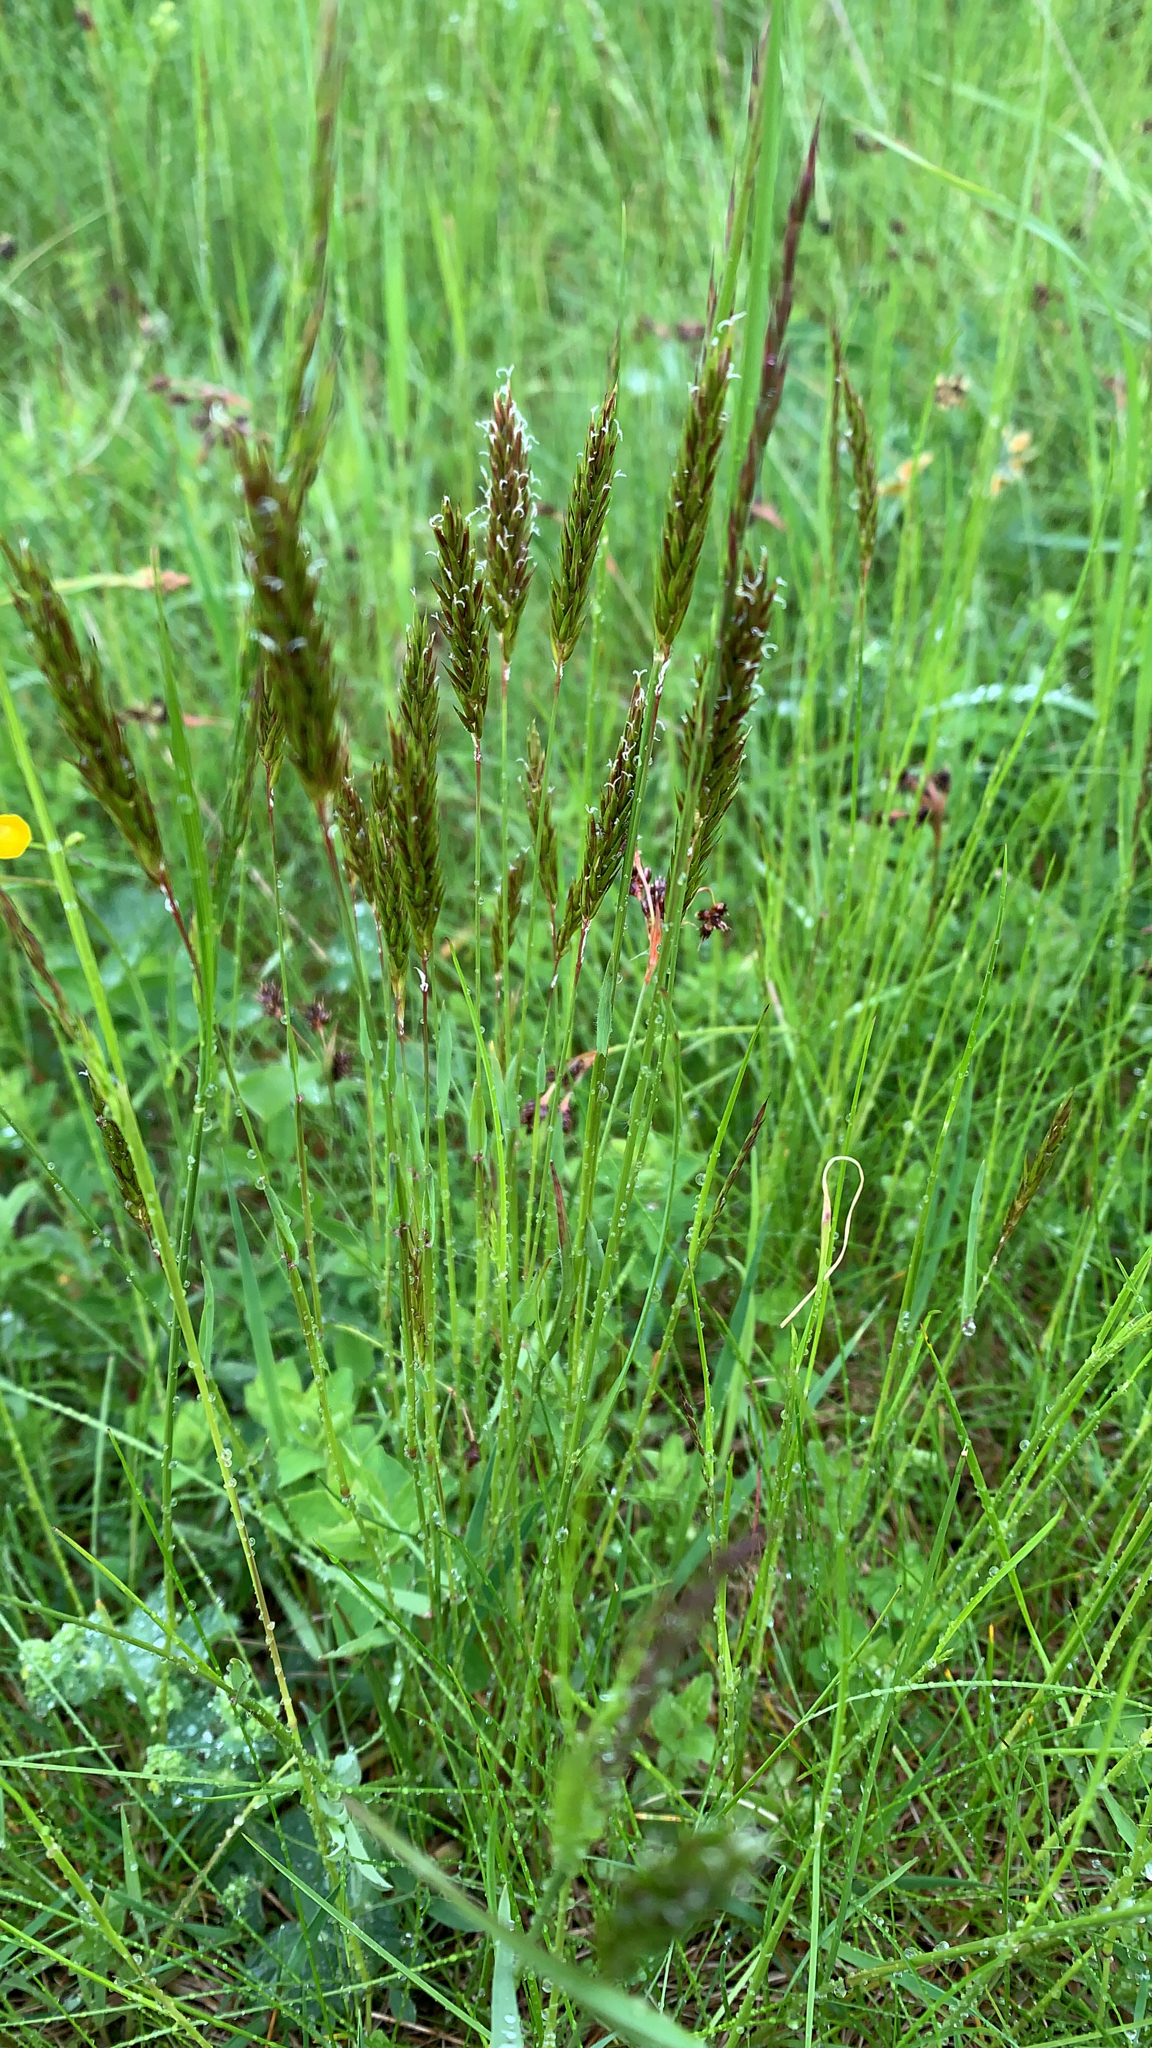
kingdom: Plantae
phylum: Tracheophyta
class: Liliopsida
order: Poales
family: Poaceae
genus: Anthoxanthum
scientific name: Anthoxanthum odoratum
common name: Sweet vernalgrass
